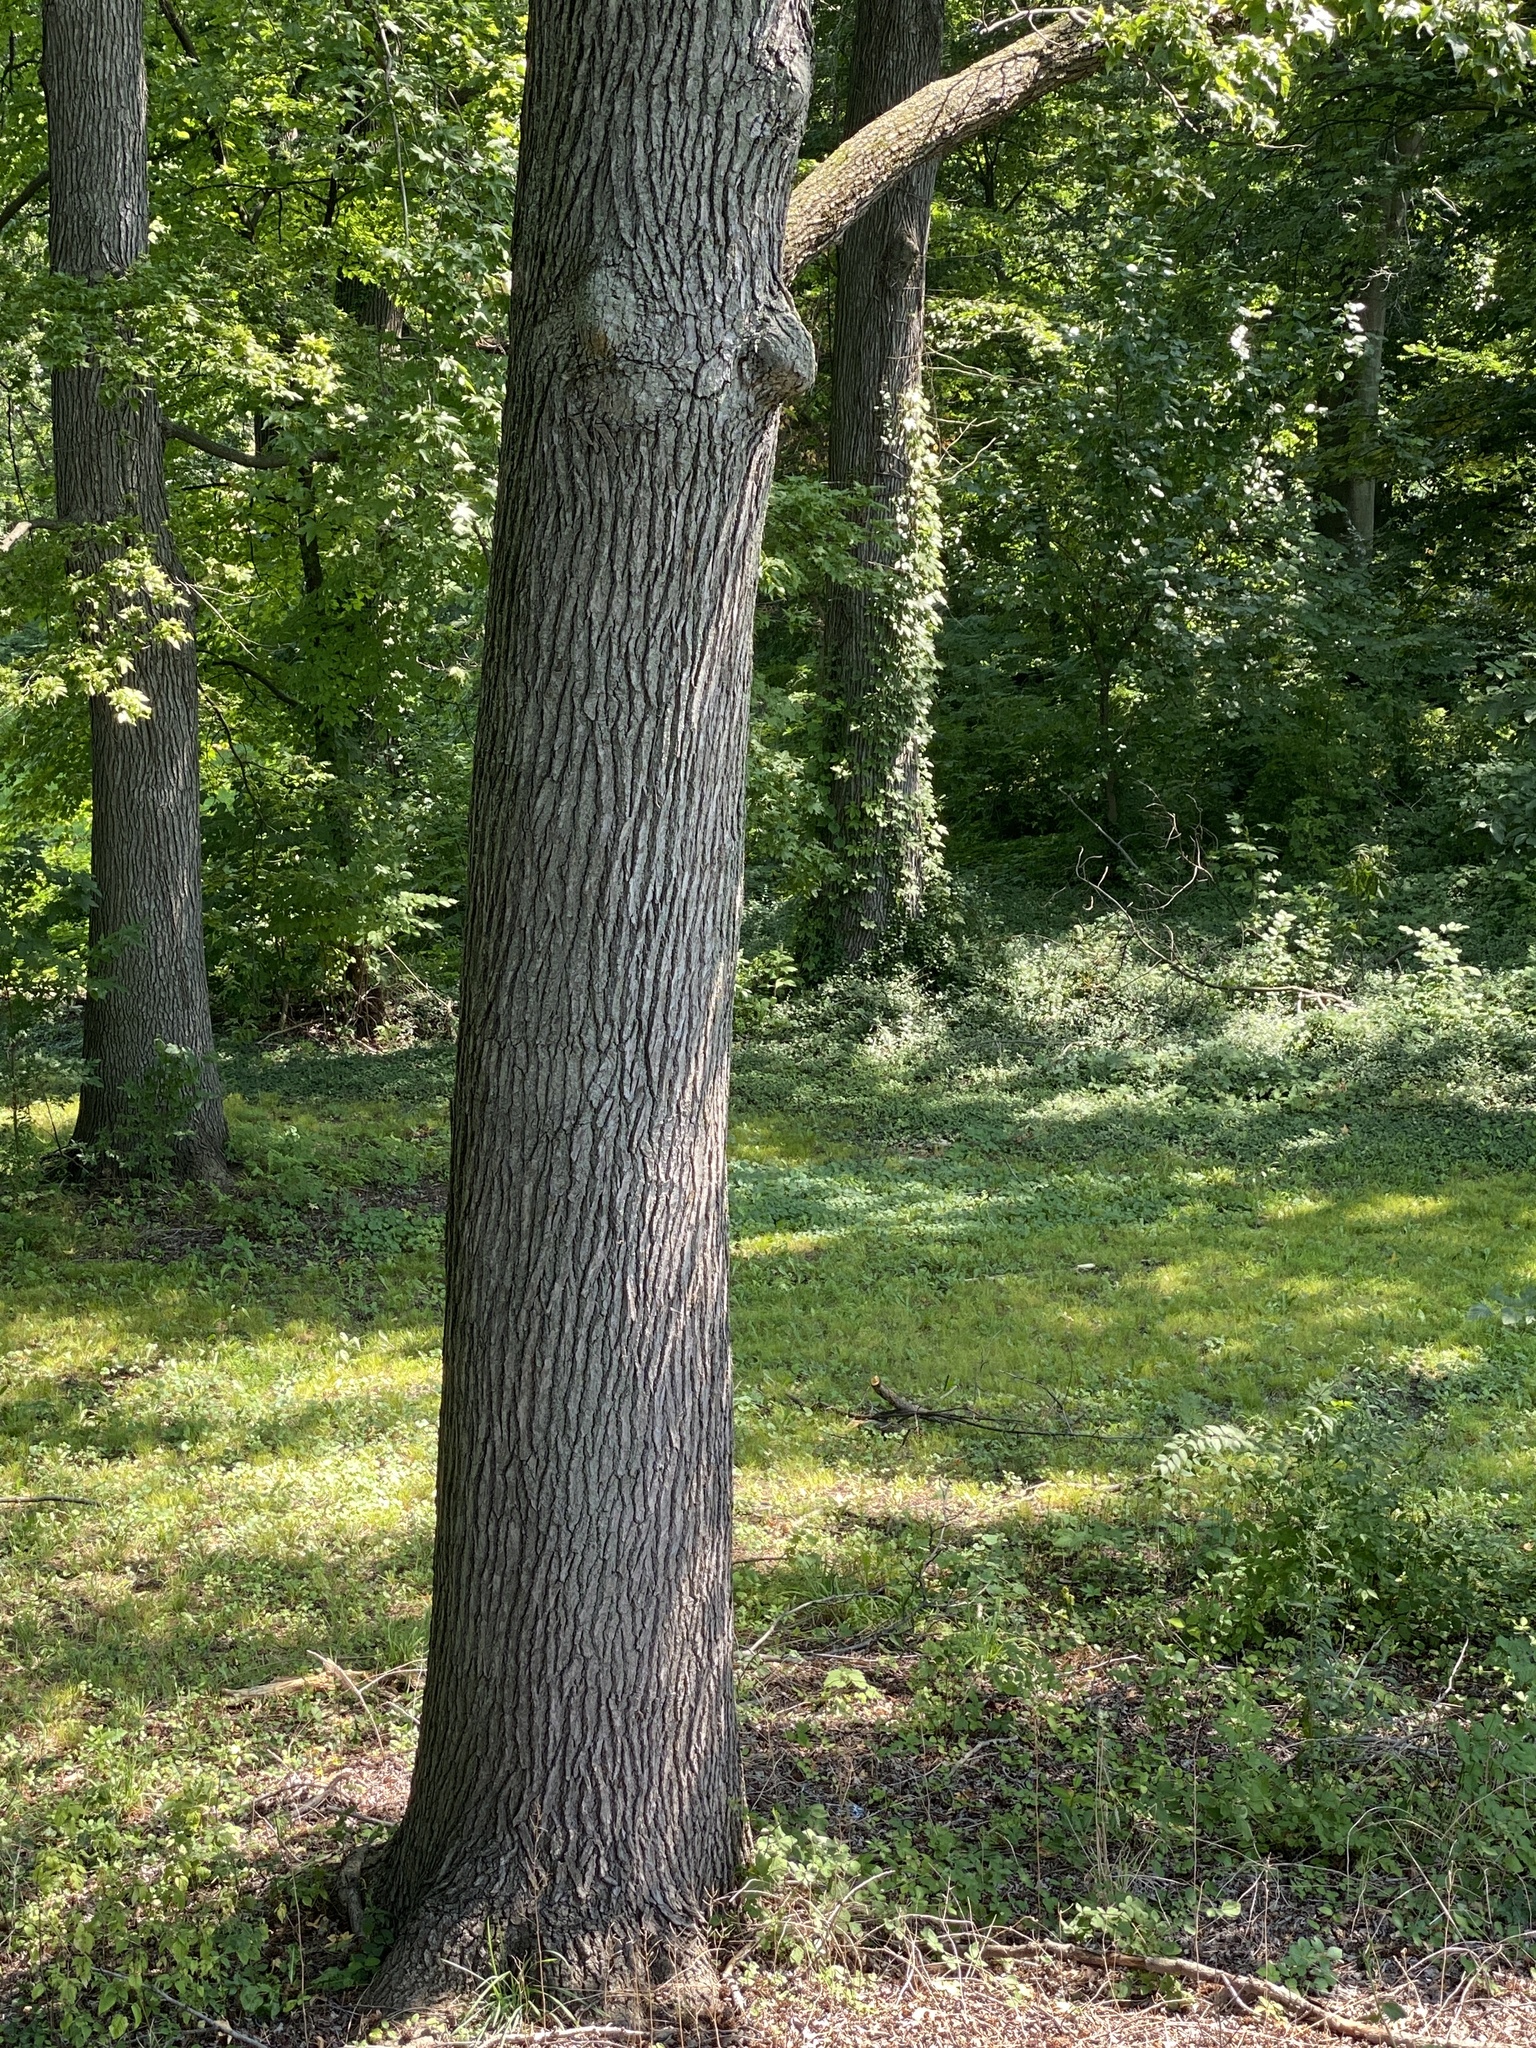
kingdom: Plantae
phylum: Tracheophyta
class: Magnoliopsida
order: Saxifragales
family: Altingiaceae
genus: Liquidambar
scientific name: Liquidambar styraciflua
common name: Sweet gum
